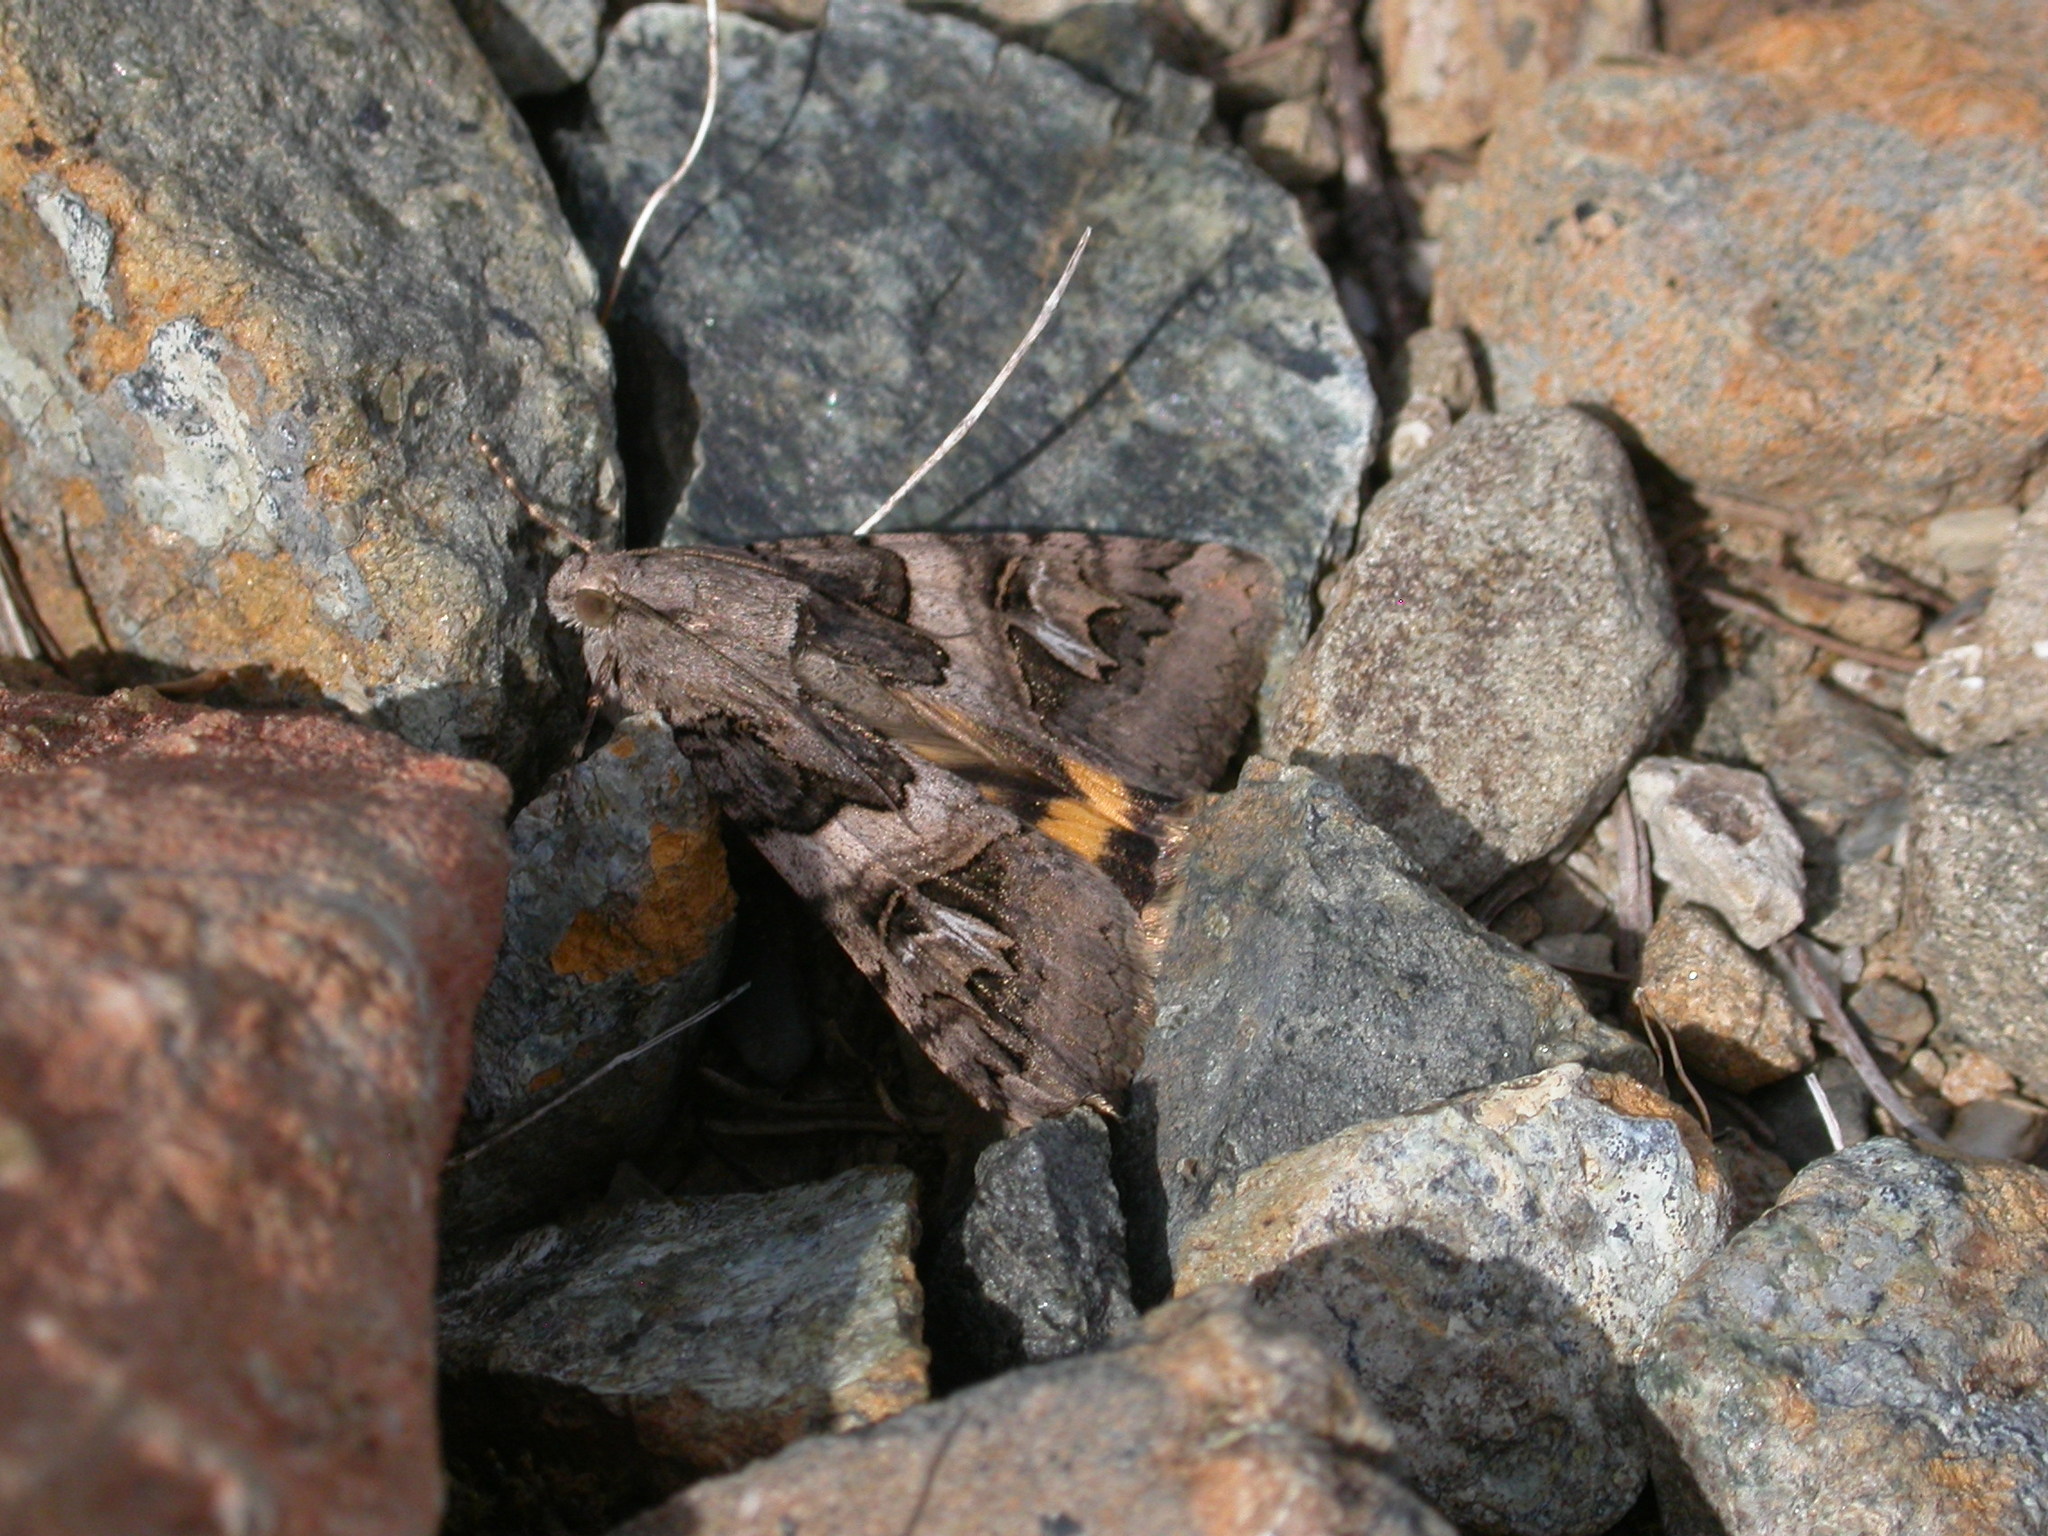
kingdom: Animalia
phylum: Arthropoda
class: Insecta
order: Lepidoptera
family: Erebidae
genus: Drasteria
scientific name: Drasteria divergens
